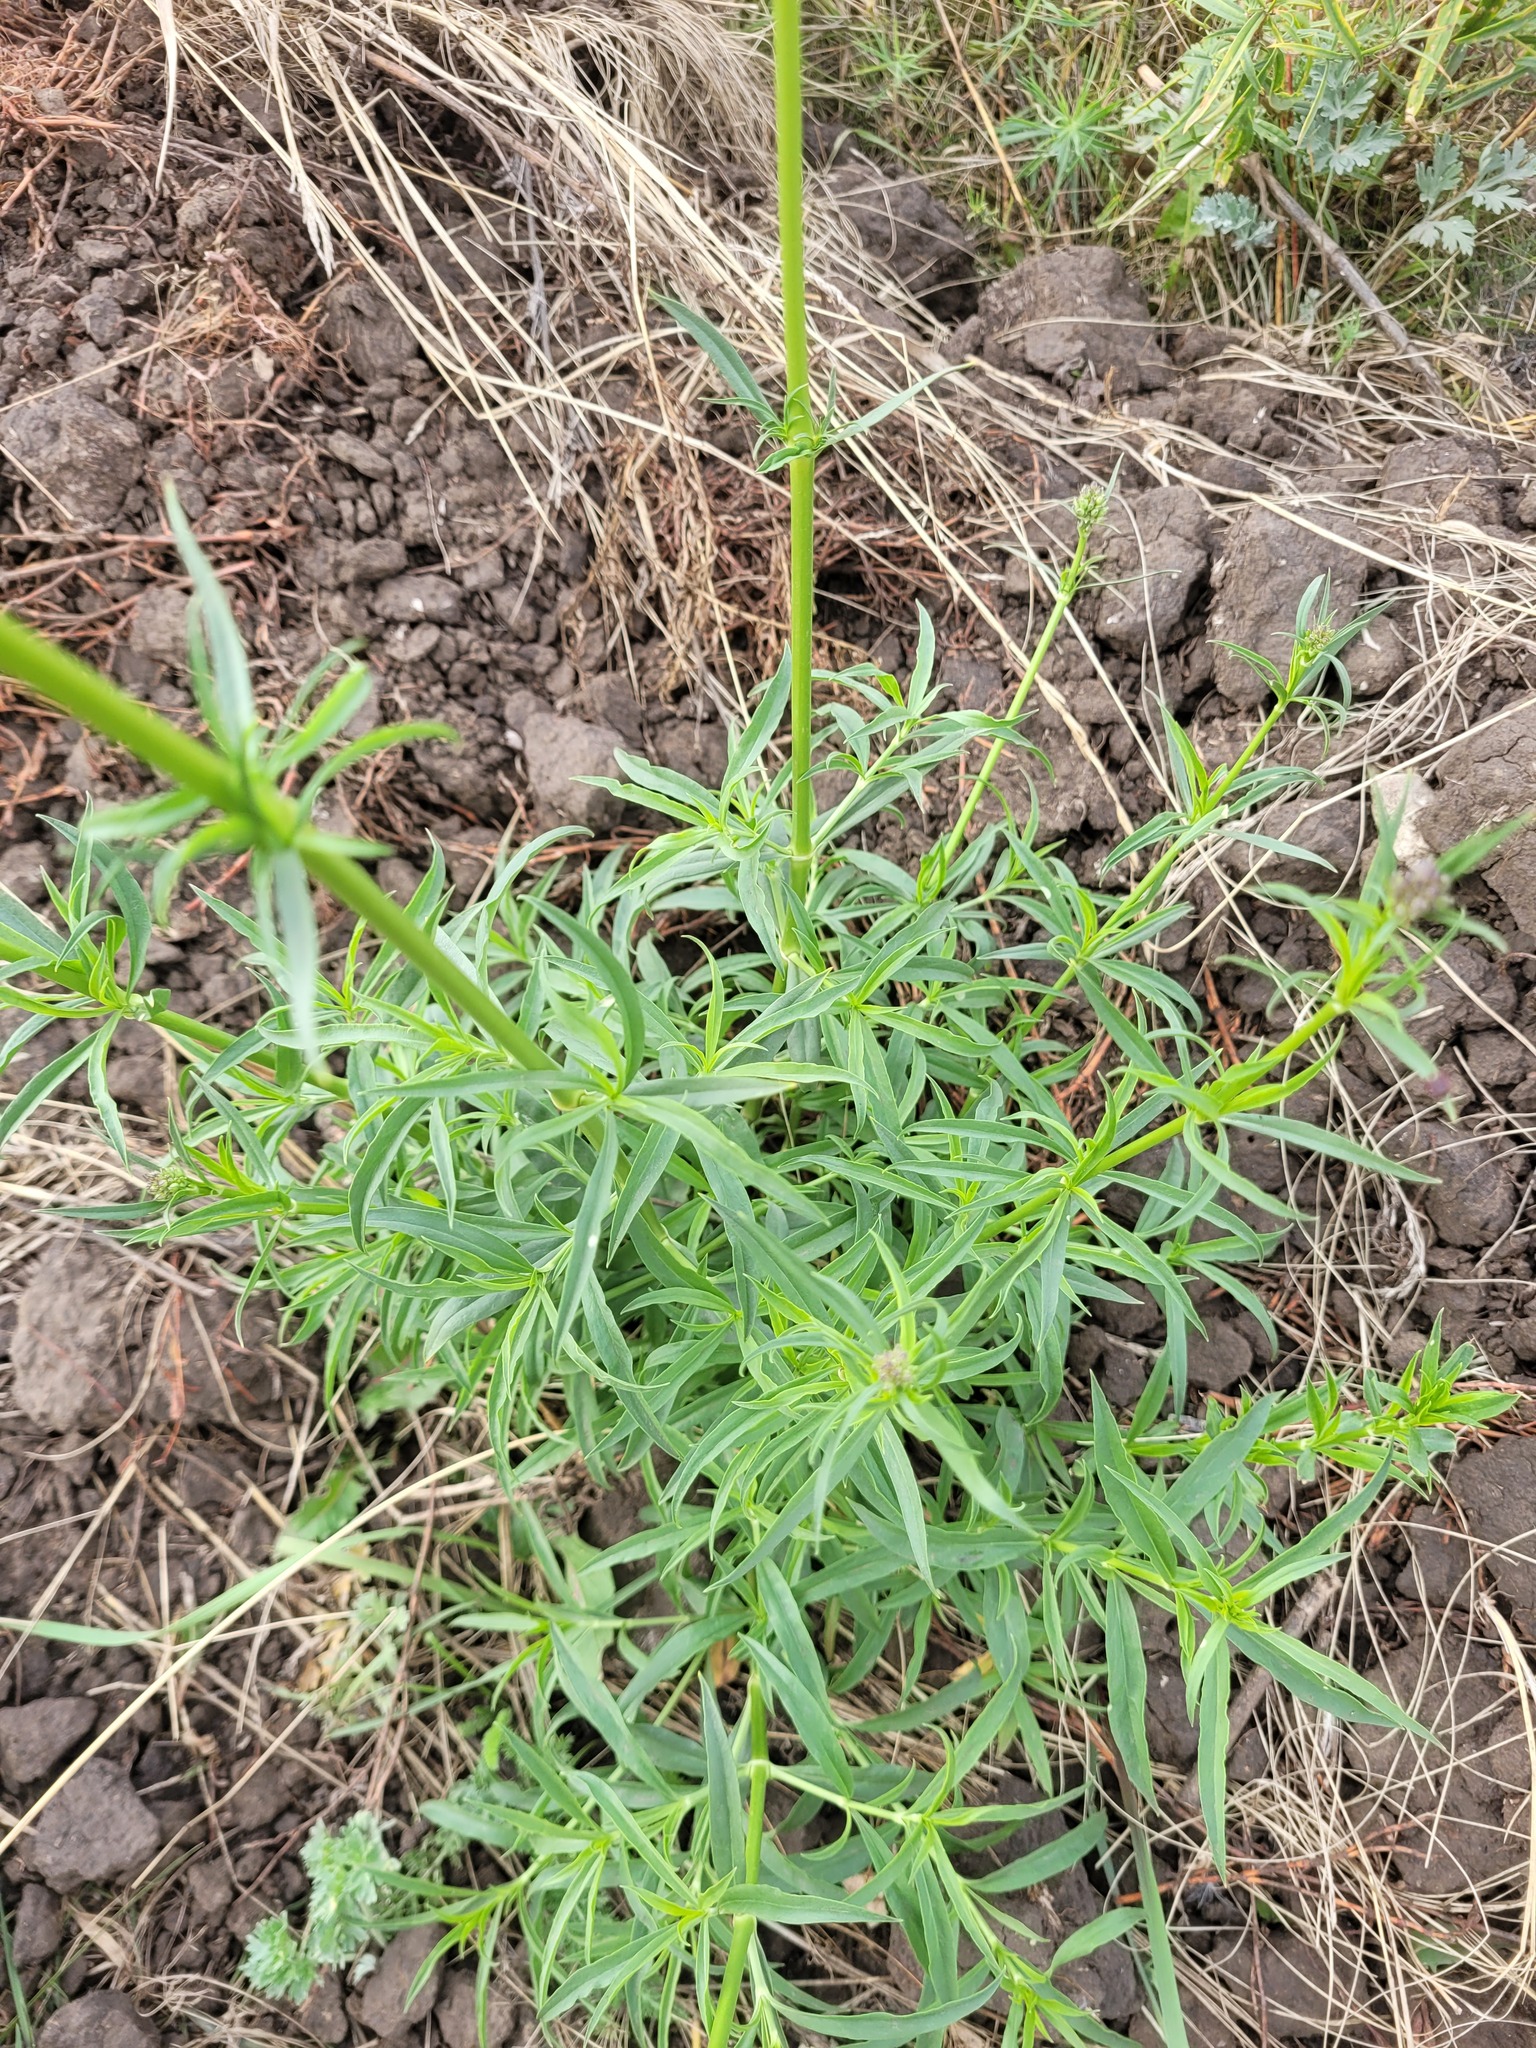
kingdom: Plantae
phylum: Tracheophyta
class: Magnoliopsida
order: Caryophyllales
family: Caryophyllaceae
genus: Silene
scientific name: Silene sibirica
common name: Siberian catchfly
